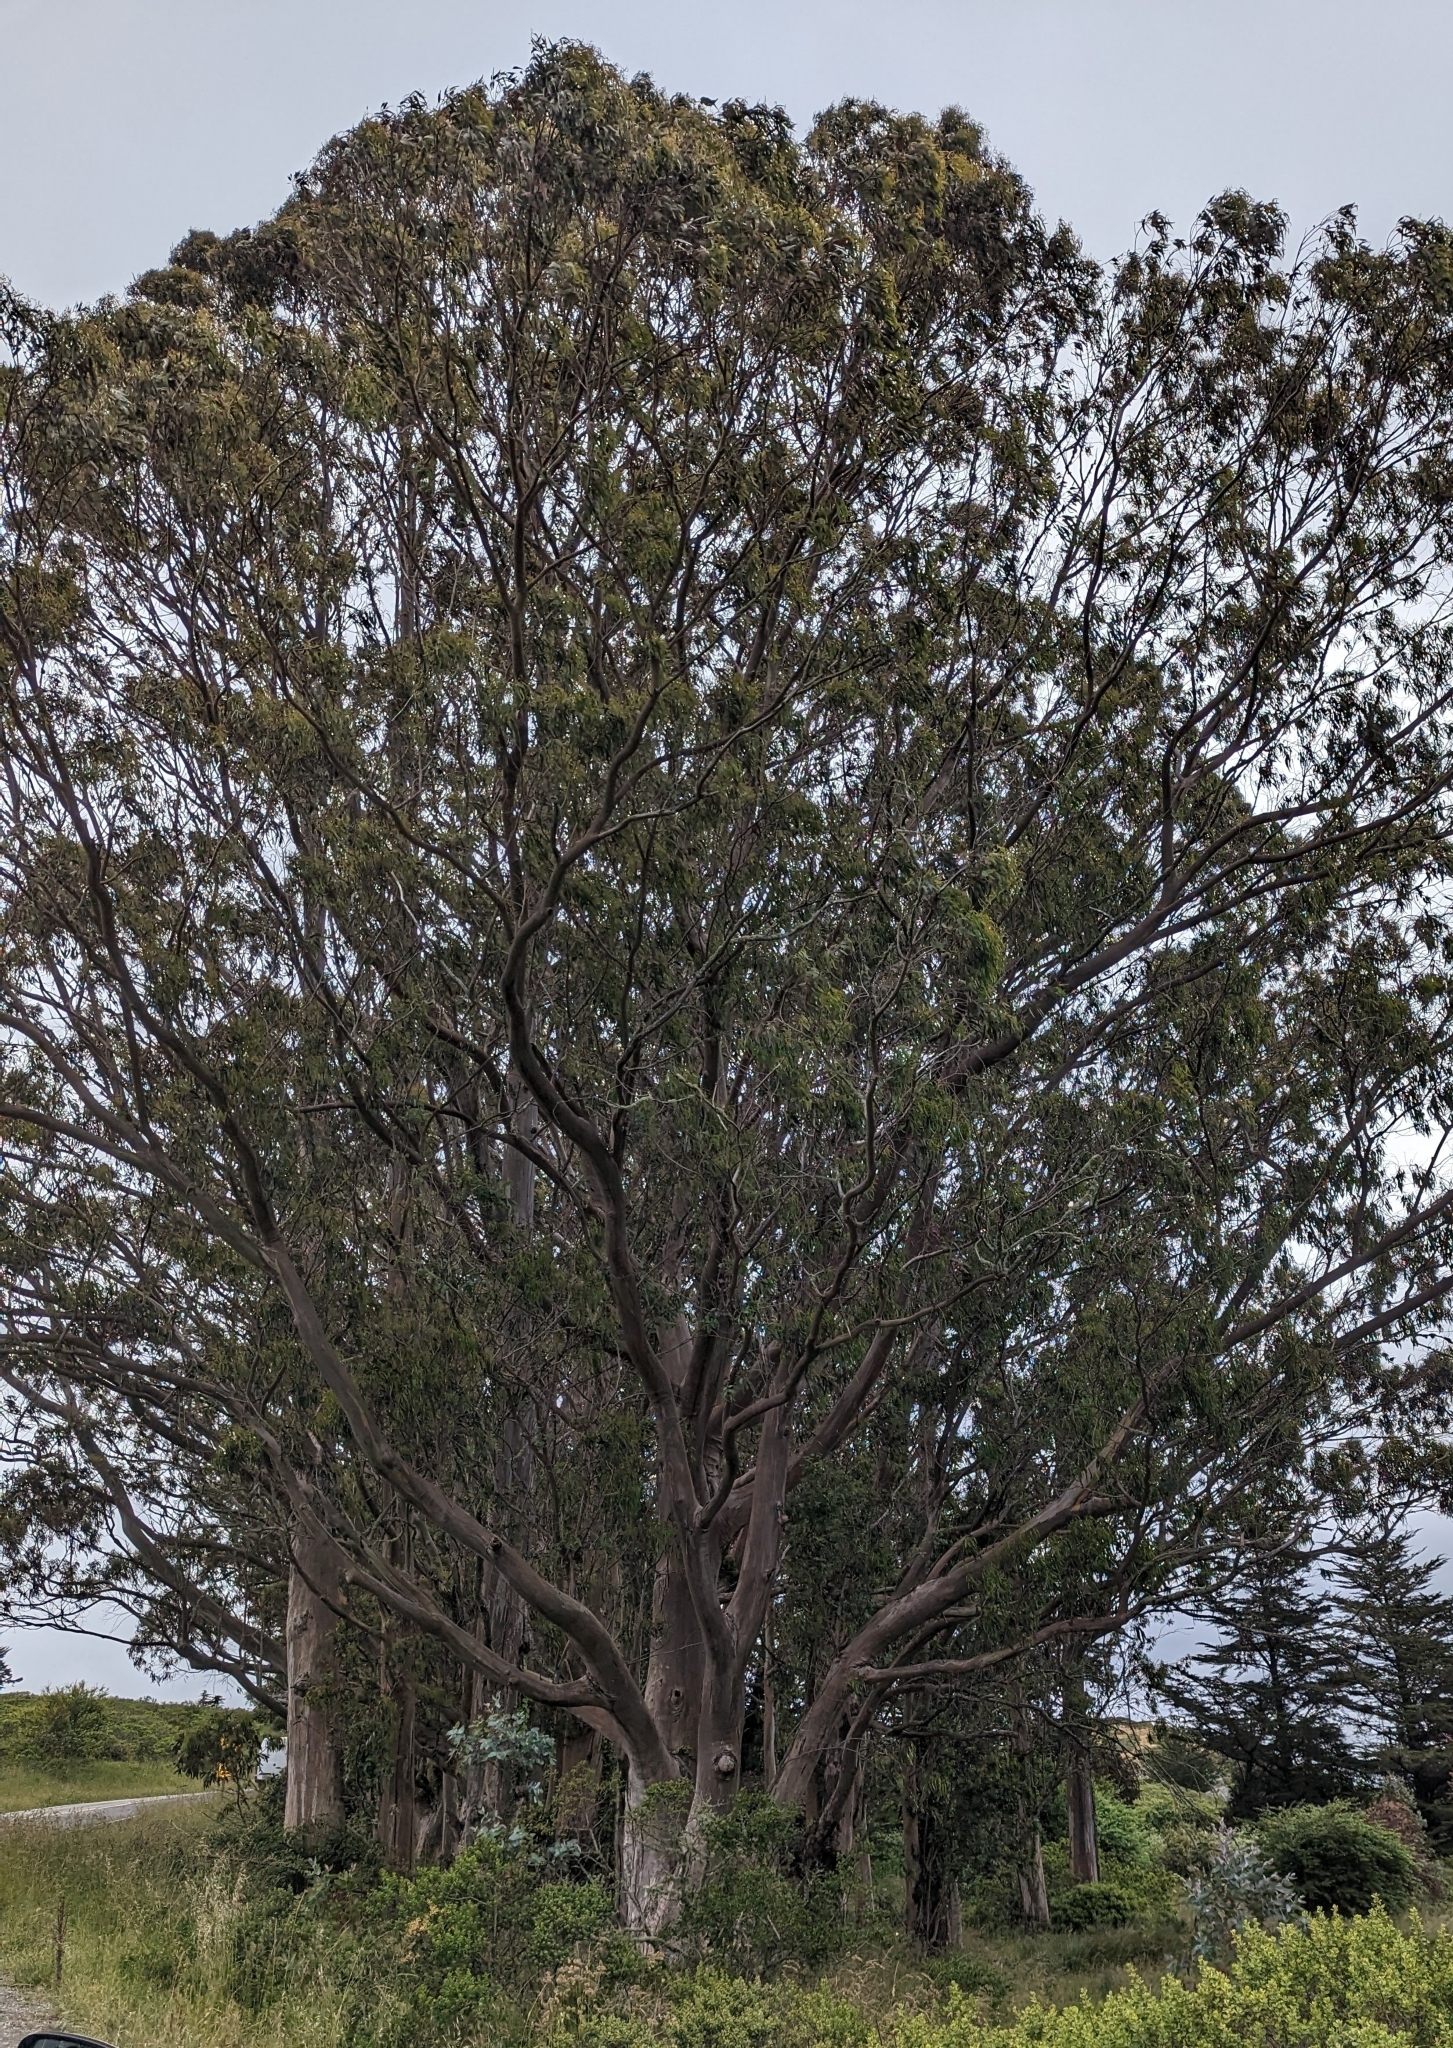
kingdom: Plantae
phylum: Tracheophyta
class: Magnoliopsida
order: Myrtales
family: Myrtaceae
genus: Eucalyptus
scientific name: Eucalyptus globulus
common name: Southern blue-gum
